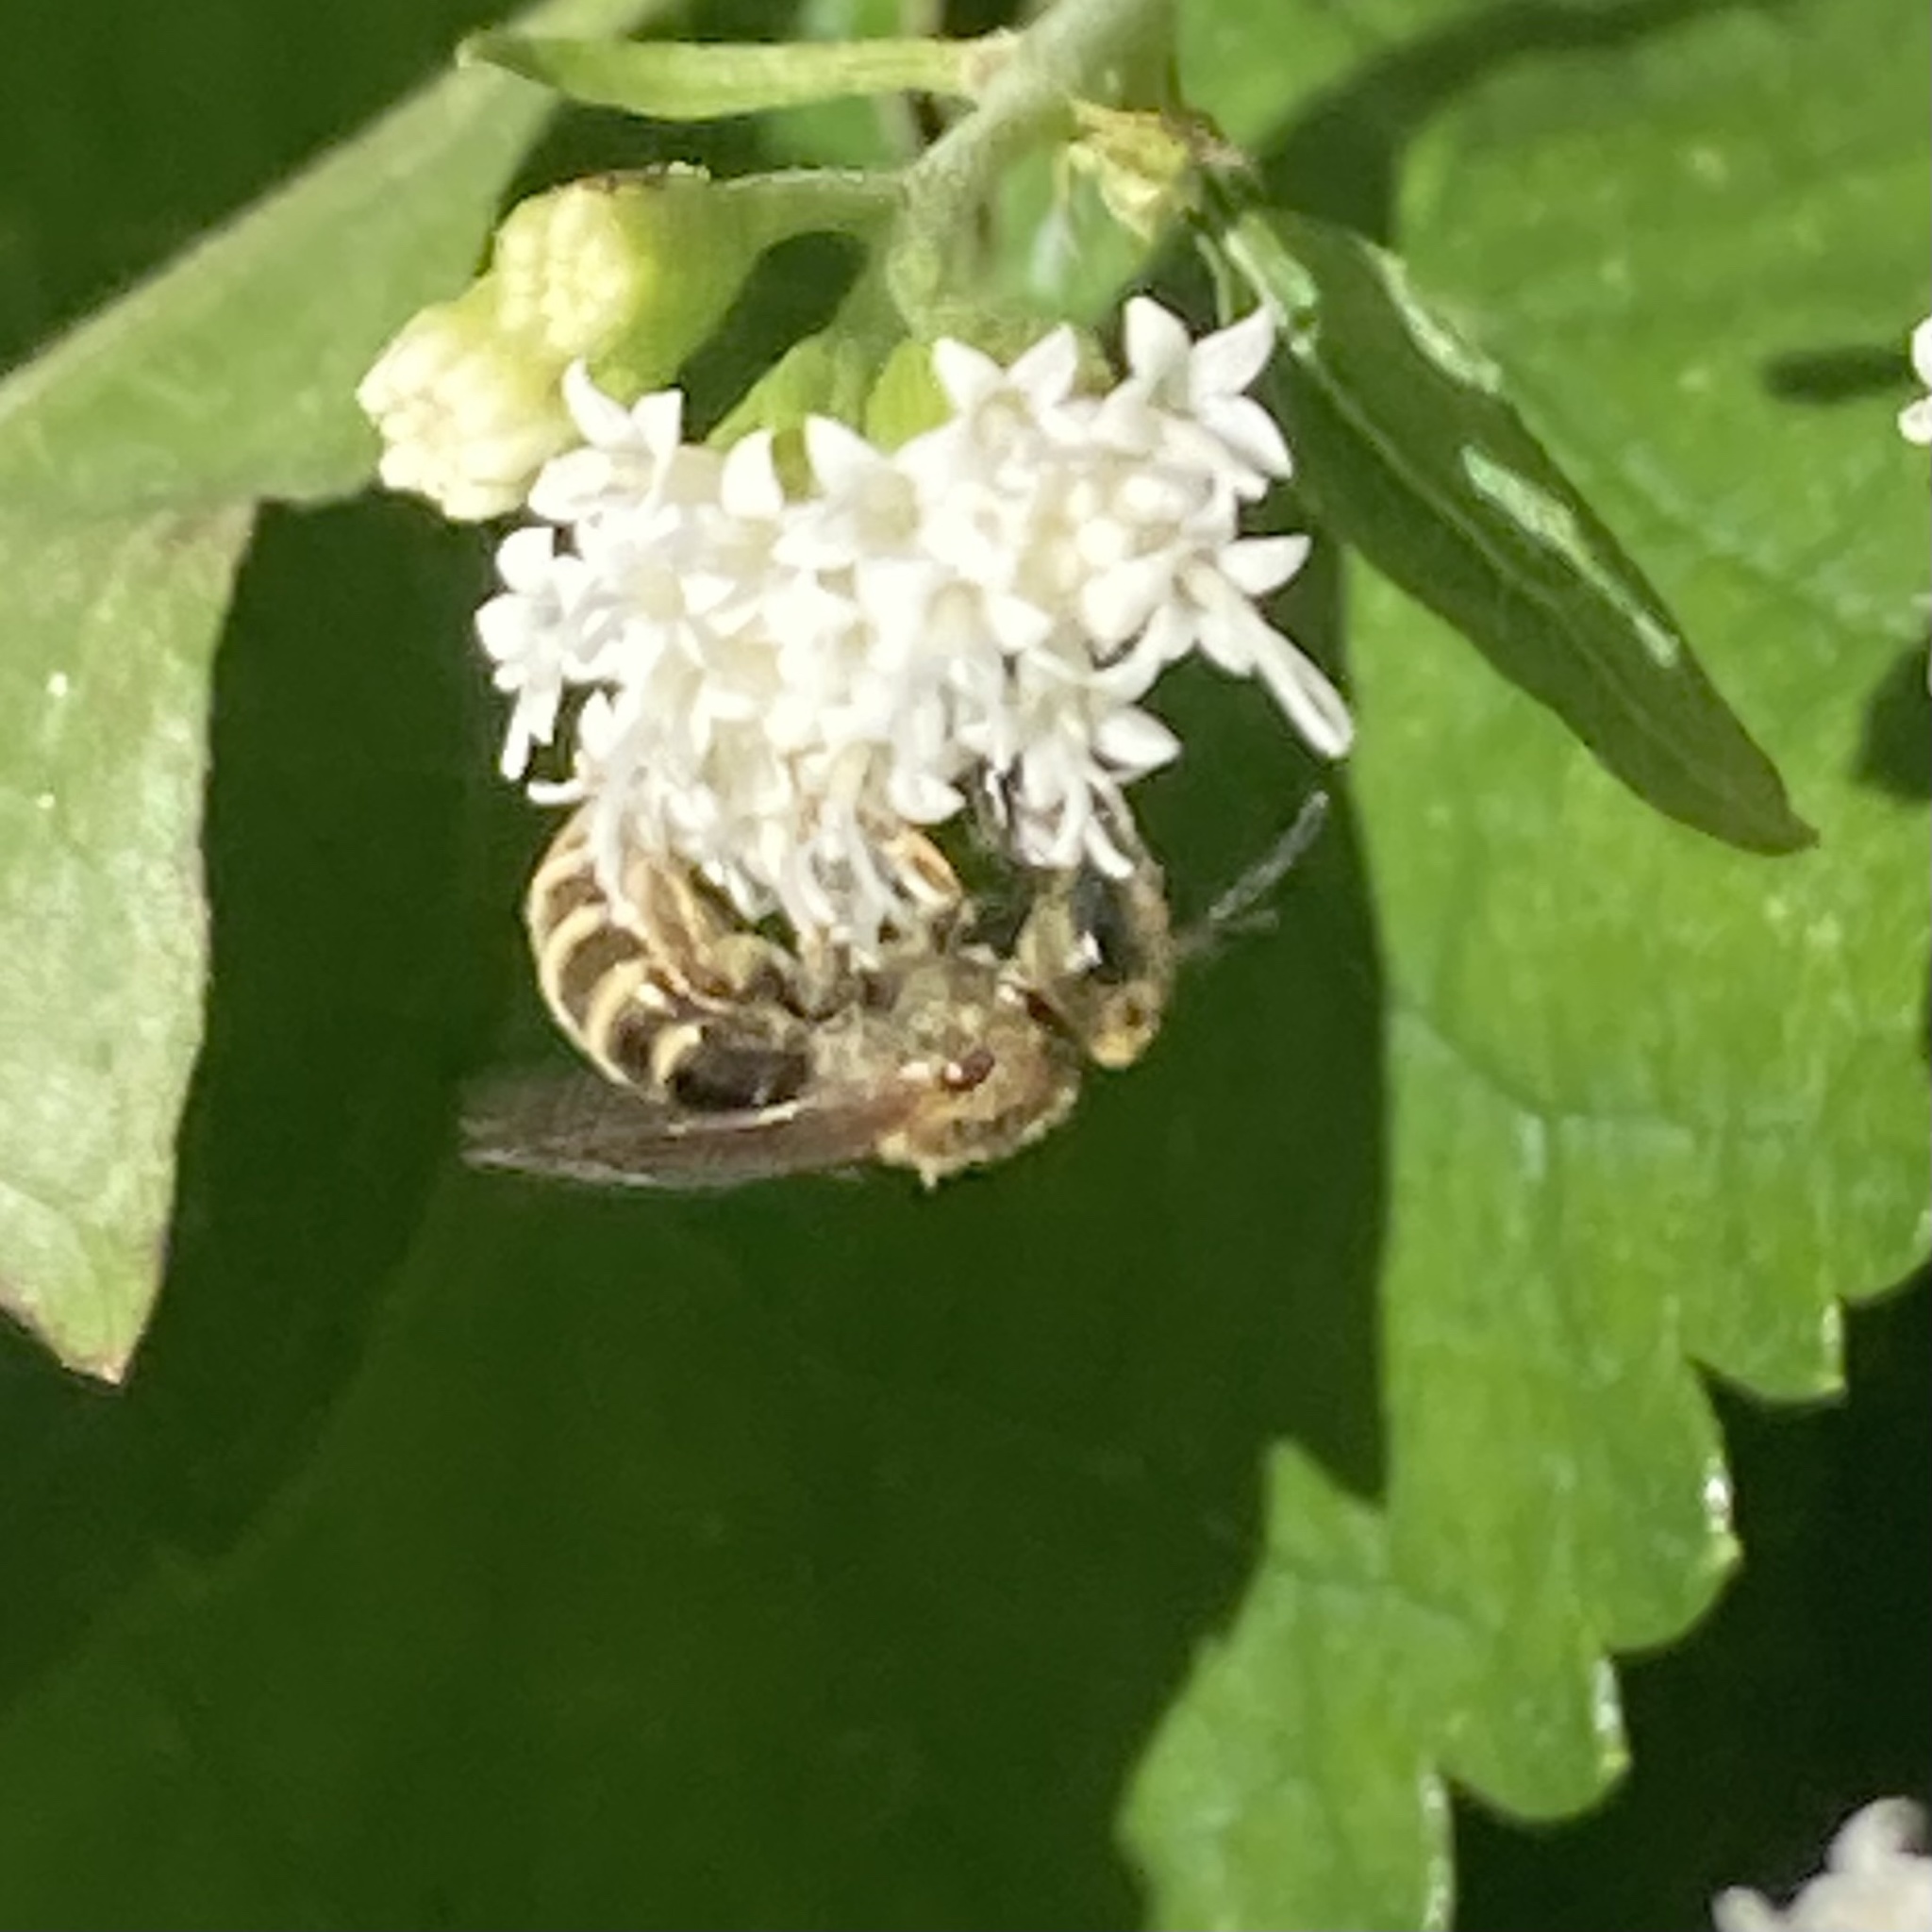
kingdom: Animalia
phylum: Arthropoda
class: Insecta
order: Hymenoptera
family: Halictidae
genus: Halictus
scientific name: Halictus confusus
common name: Southern bronze furrow bee
